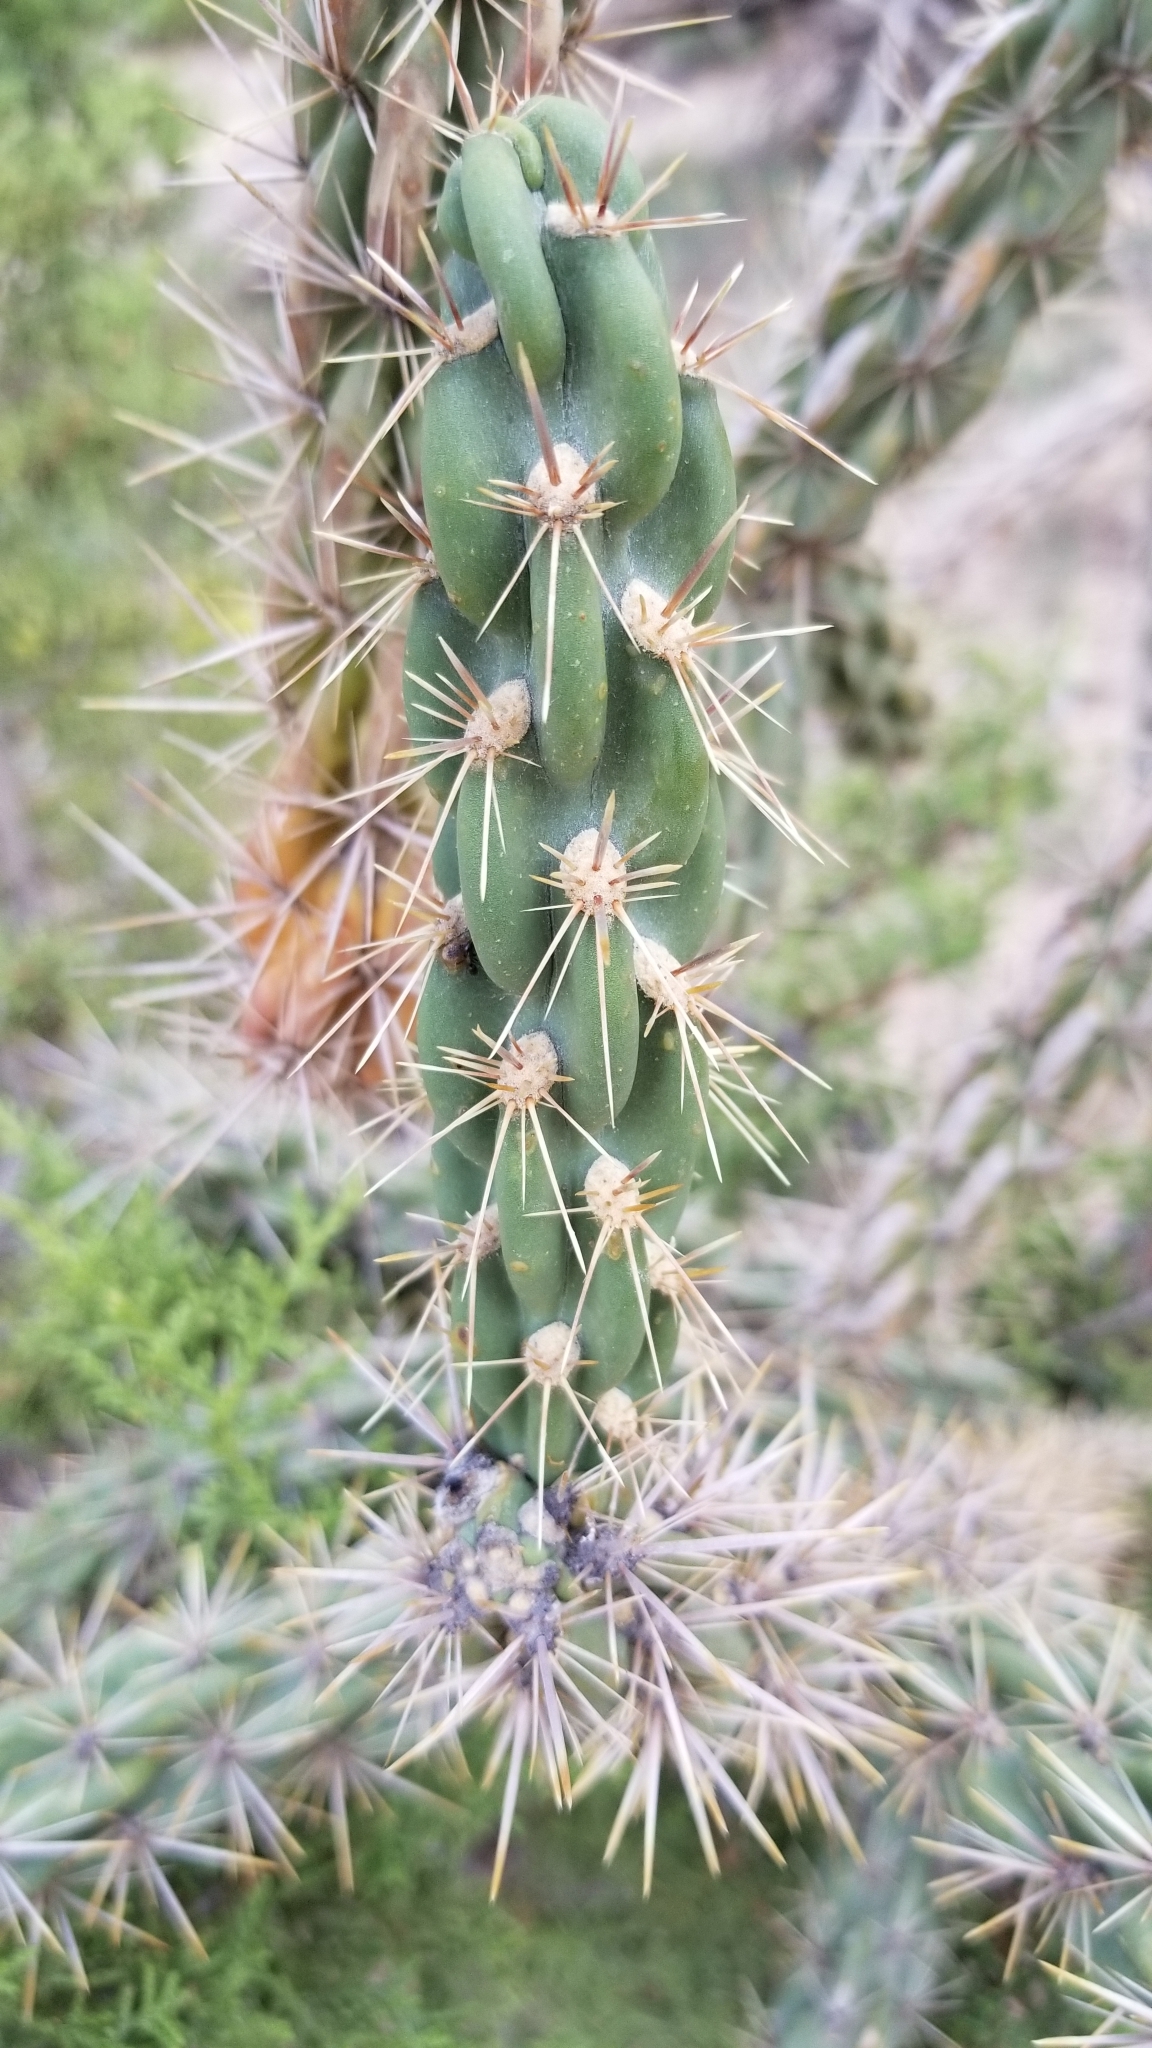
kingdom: Plantae
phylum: Tracheophyta
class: Magnoliopsida
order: Caryophyllales
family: Cactaceae
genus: Cylindropuntia
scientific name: Cylindropuntia imbricata
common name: Candelabrum cactus
